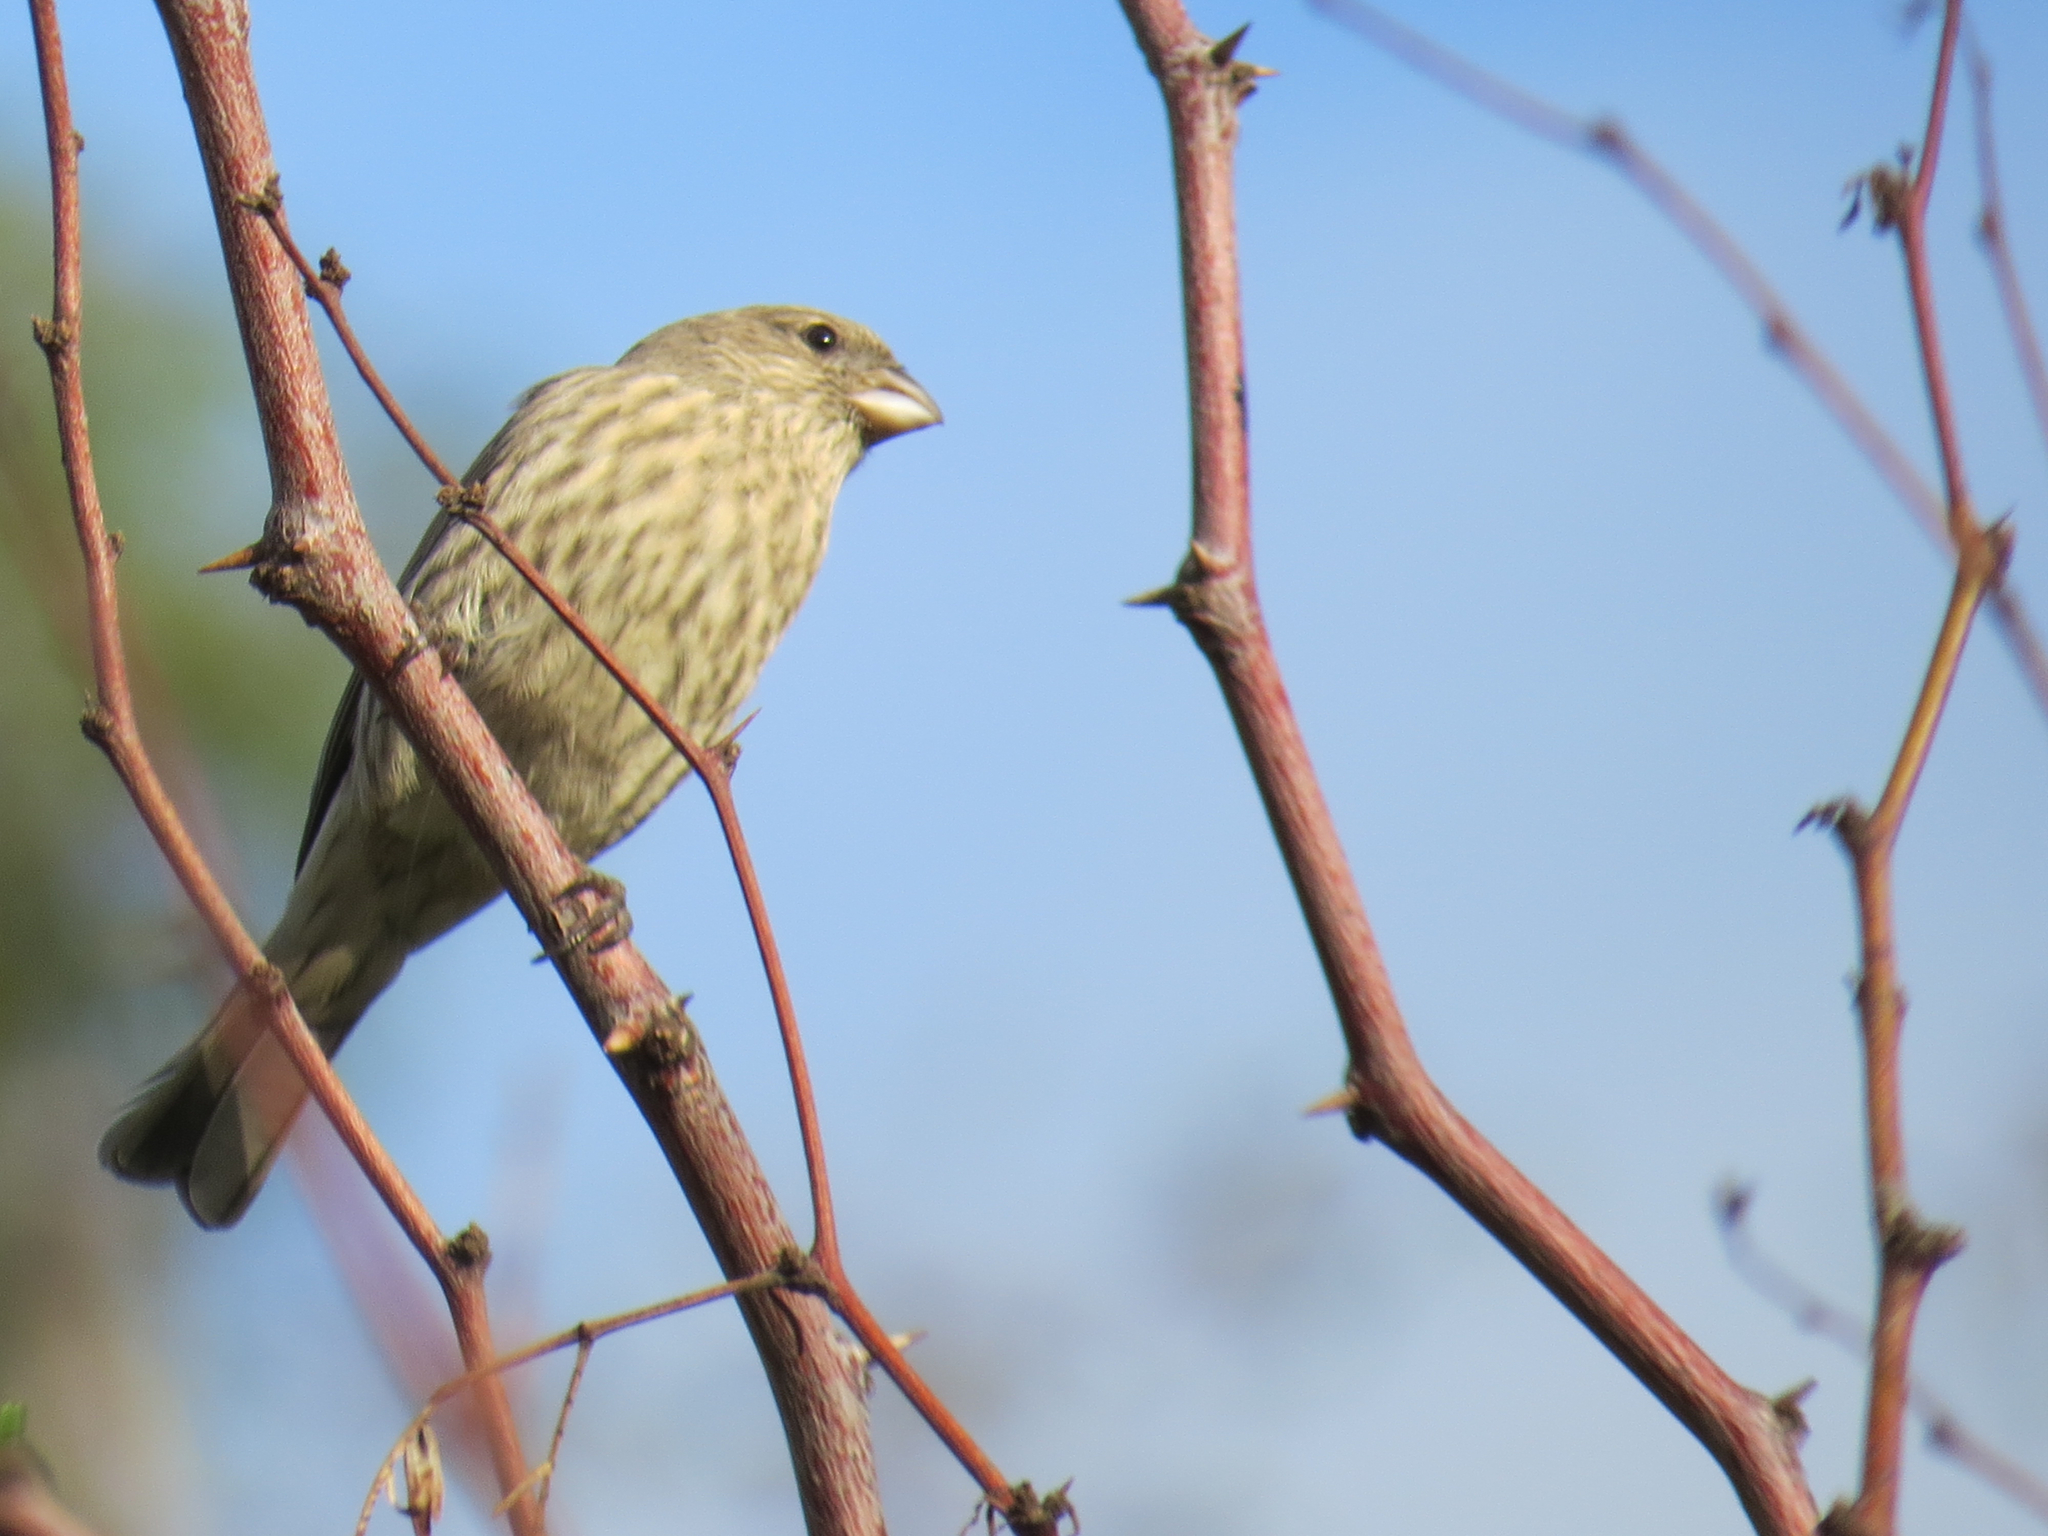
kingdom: Animalia
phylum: Chordata
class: Aves
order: Passeriformes
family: Fringillidae
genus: Haemorhous
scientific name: Haemorhous mexicanus
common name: House finch
